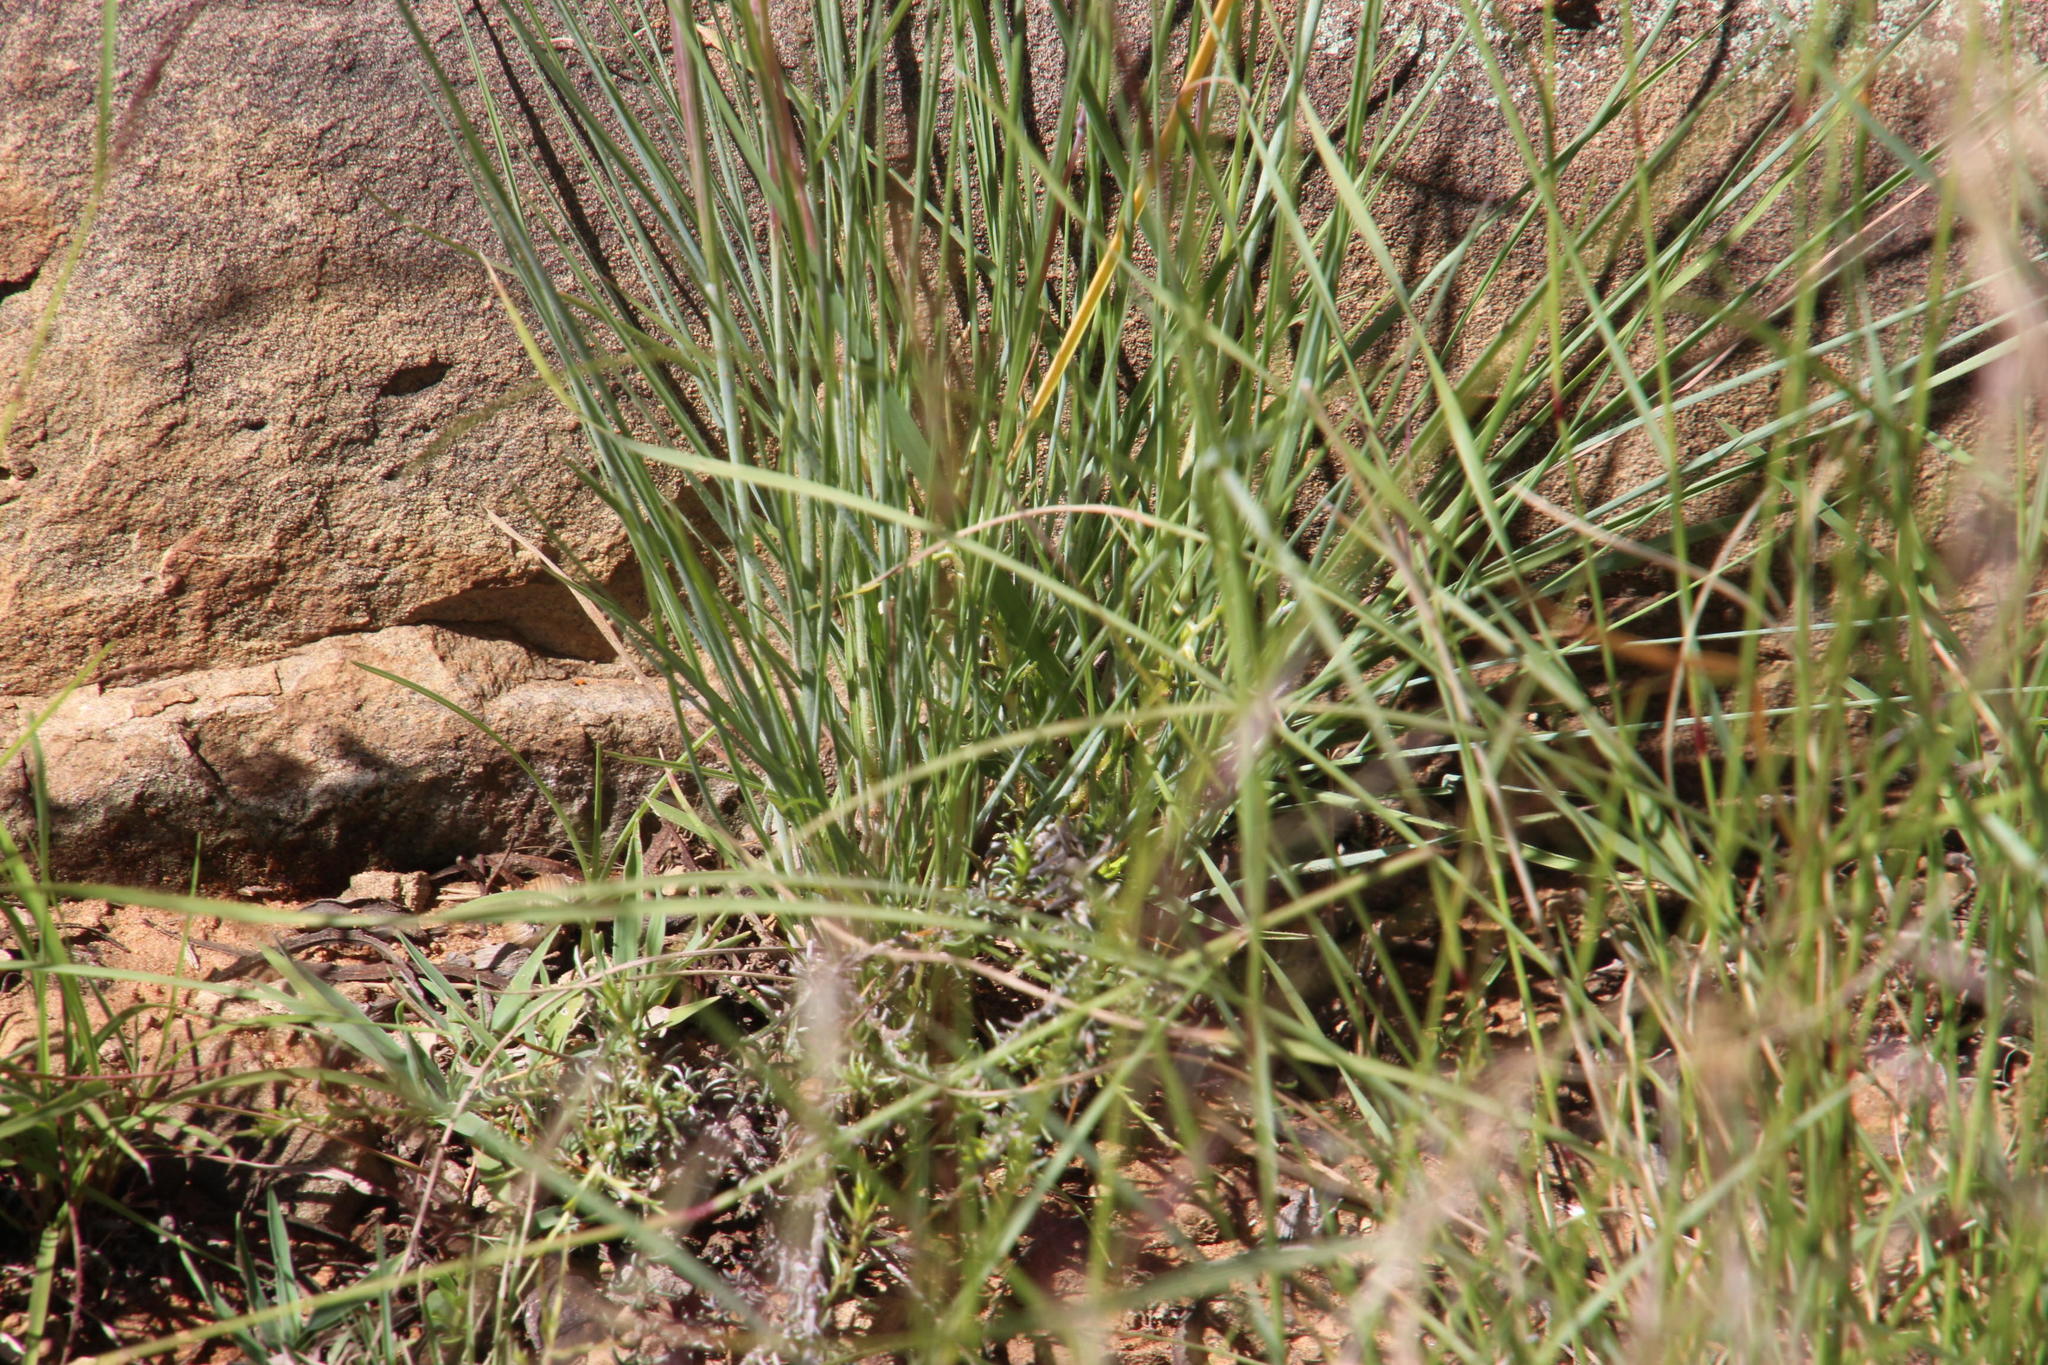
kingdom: Plantae
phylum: Tracheophyta
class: Liliopsida
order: Poales
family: Poaceae
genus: Melinis
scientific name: Melinis repens
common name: Rose natal grass
